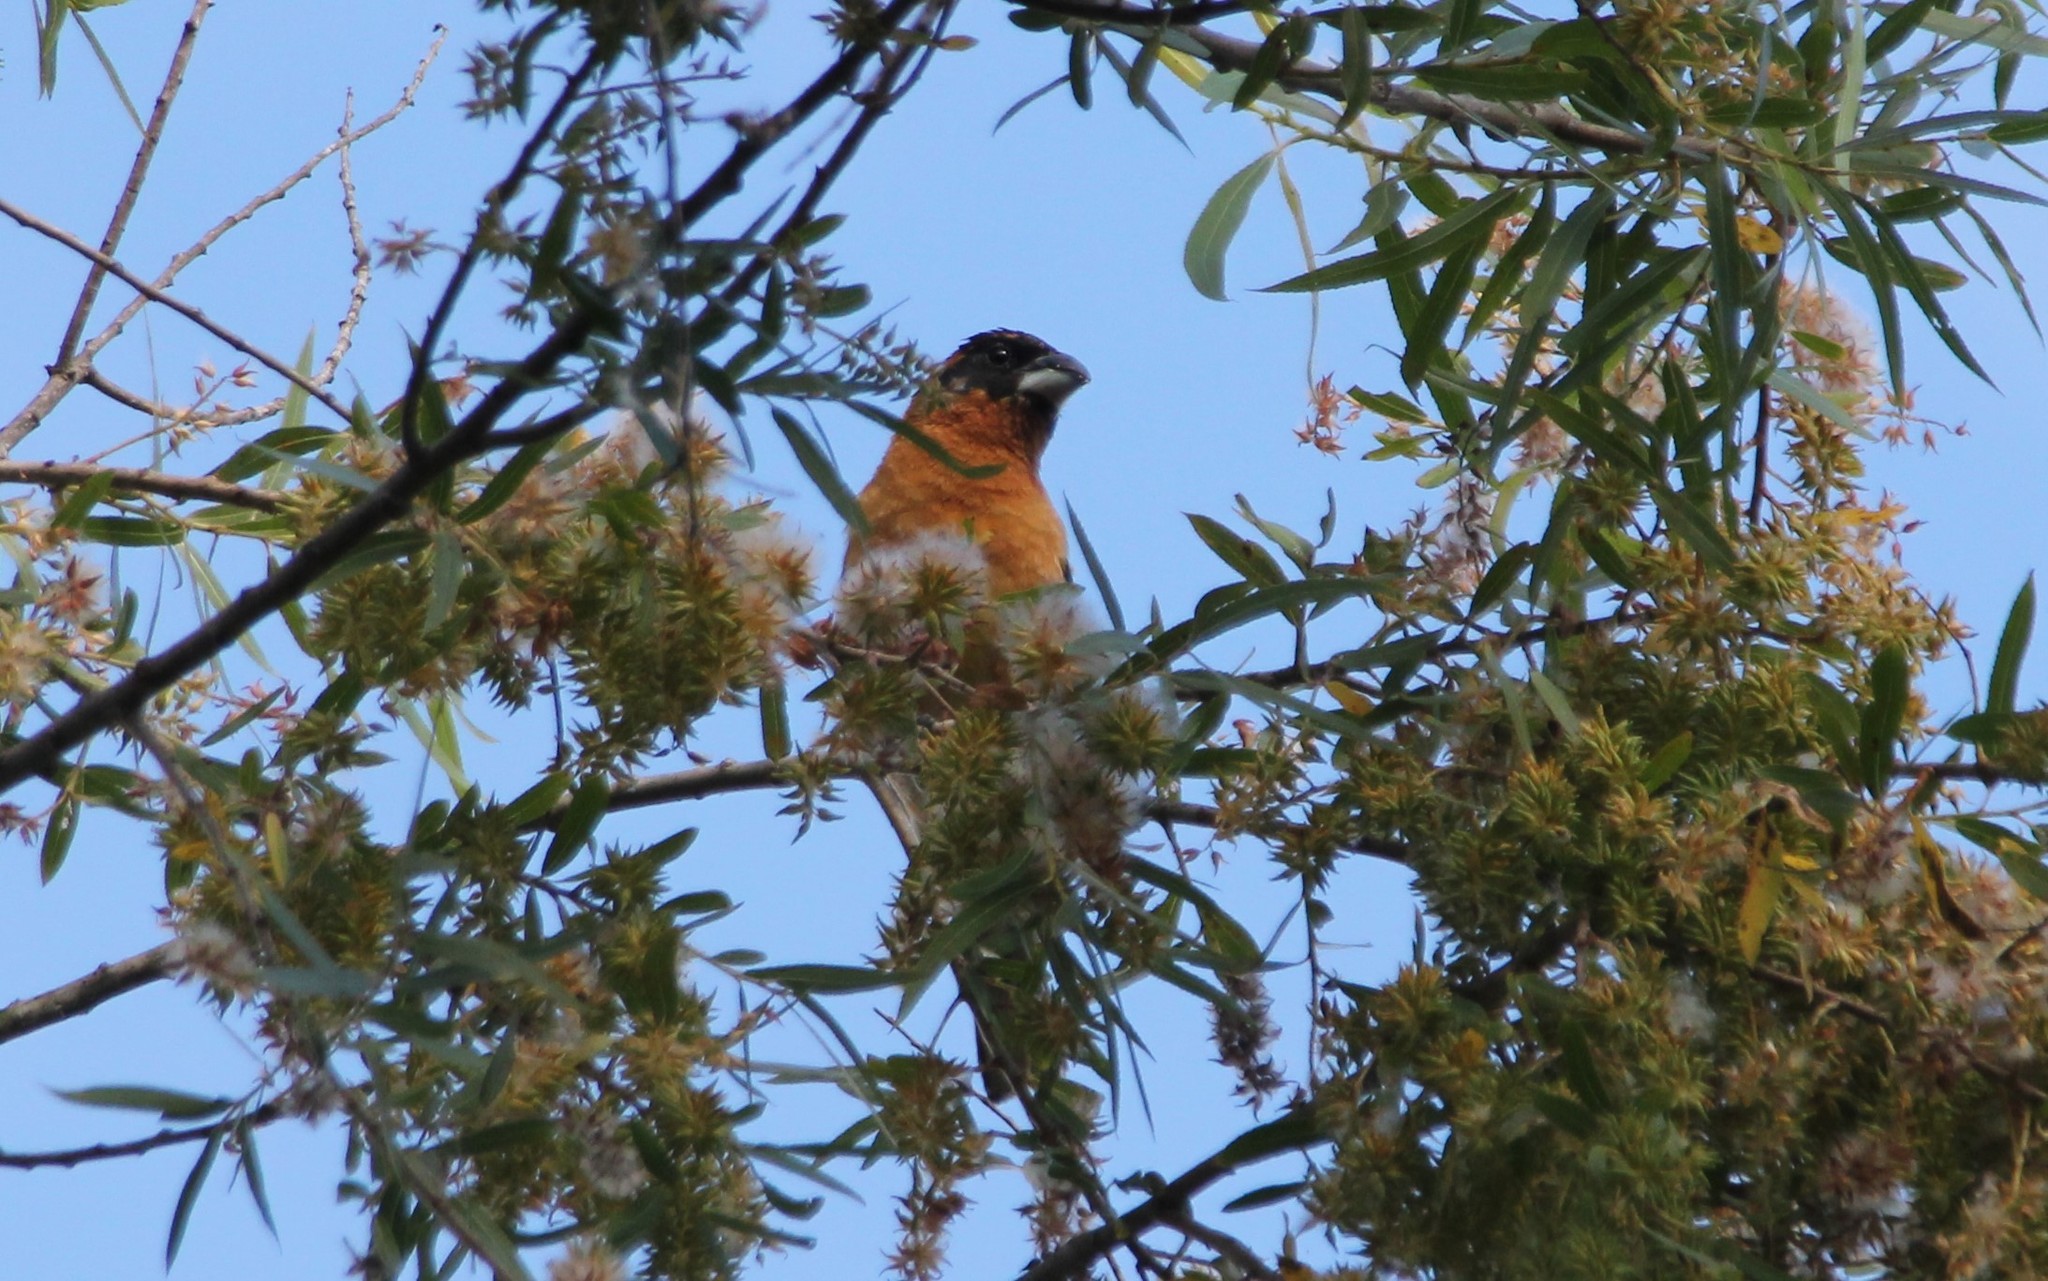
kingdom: Animalia
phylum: Chordata
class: Aves
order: Passeriformes
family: Cardinalidae
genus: Pheucticus
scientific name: Pheucticus melanocephalus
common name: Black-headed grosbeak
